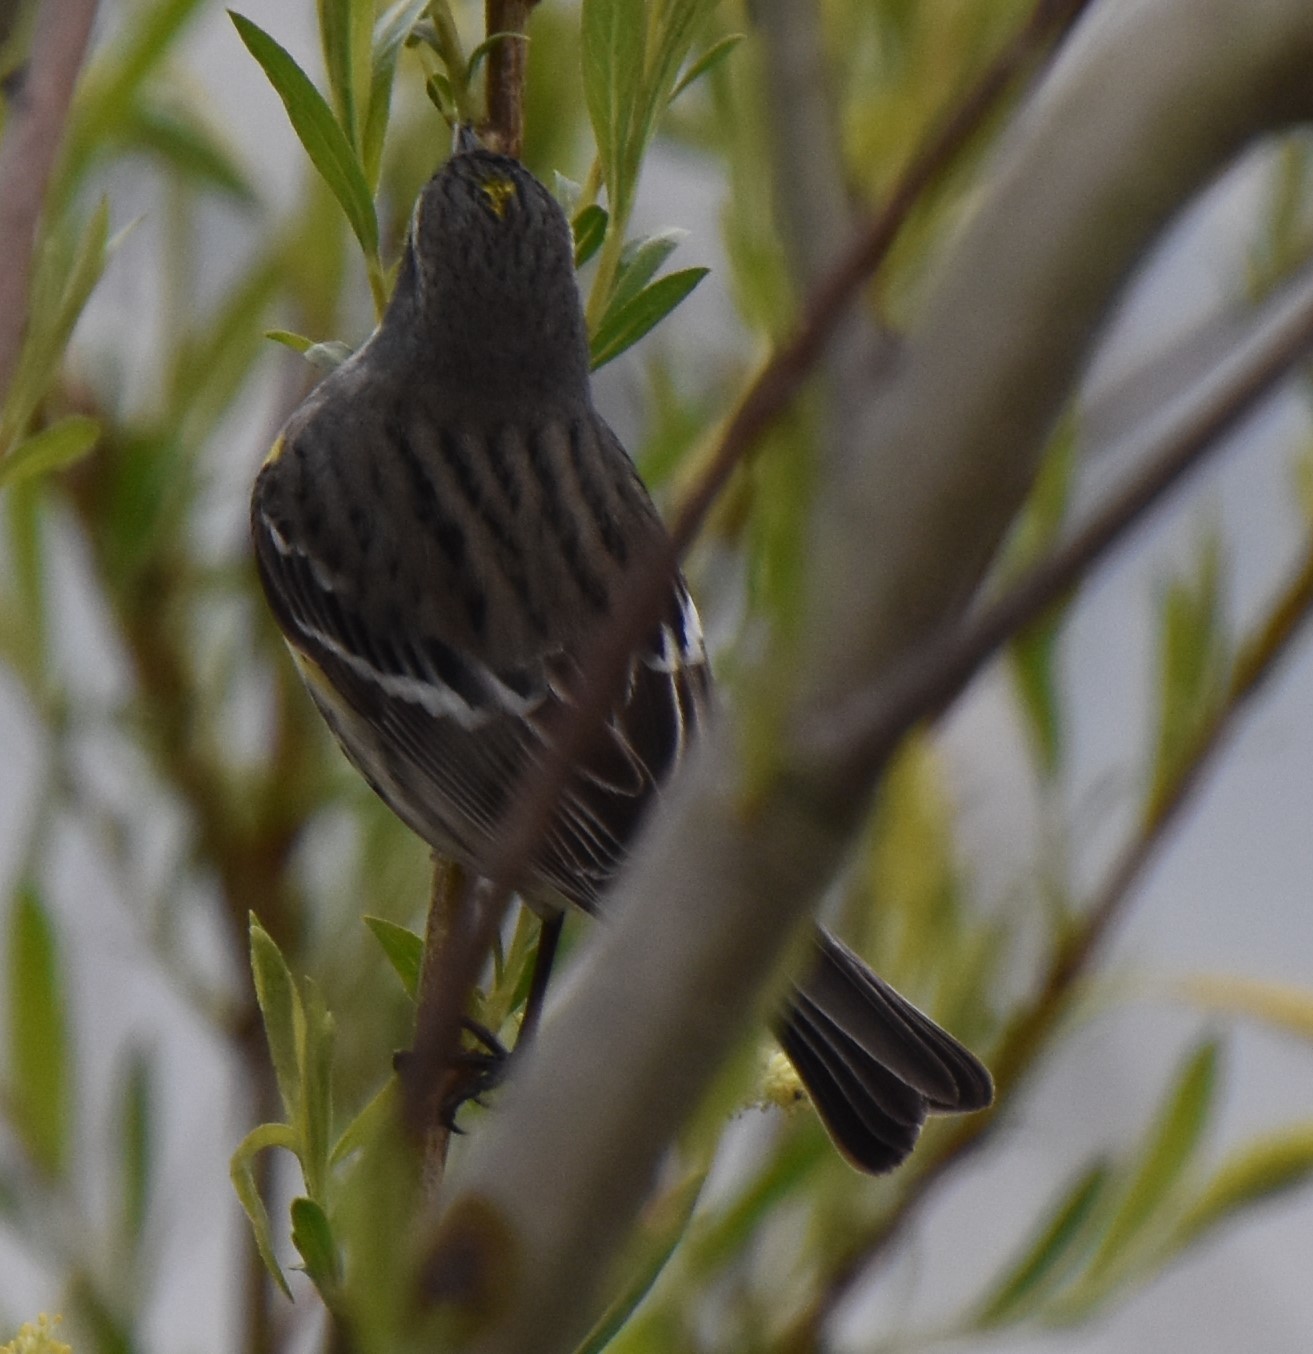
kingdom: Animalia
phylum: Chordata
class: Aves
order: Passeriformes
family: Parulidae
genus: Setophaga
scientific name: Setophaga coronata
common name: Myrtle warbler
